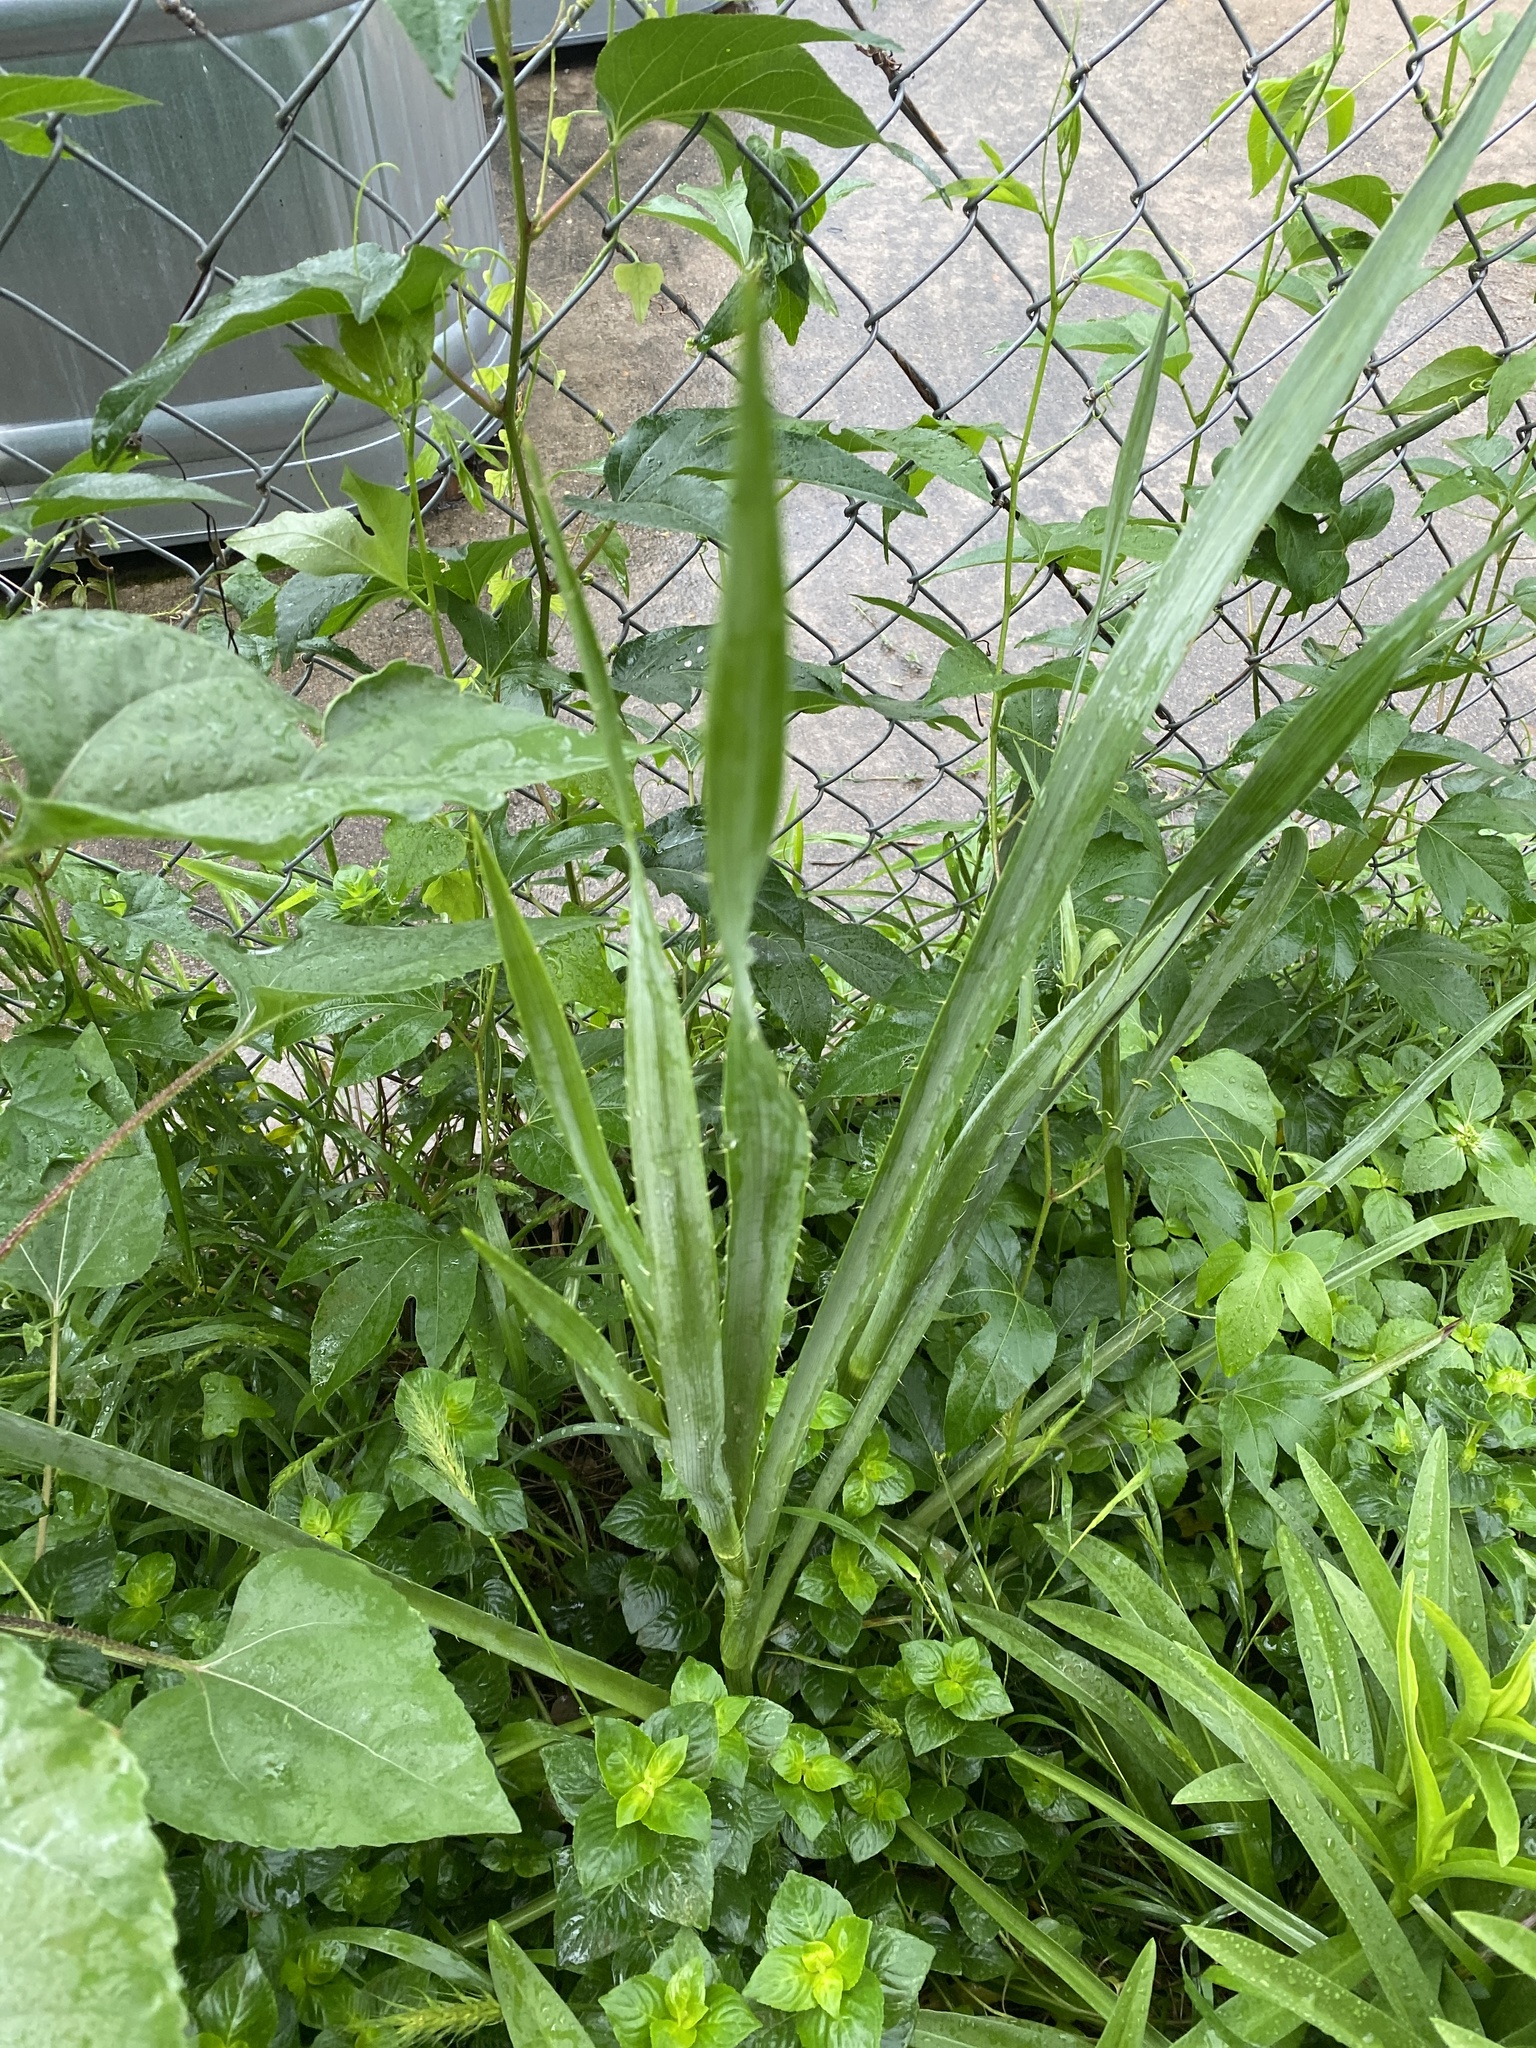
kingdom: Plantae
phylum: Tracheophyta
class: Magnoliopsida
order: Apiales
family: Apiaceae
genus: Eryngium
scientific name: Eryngium yuccifolium
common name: Button eryngo
